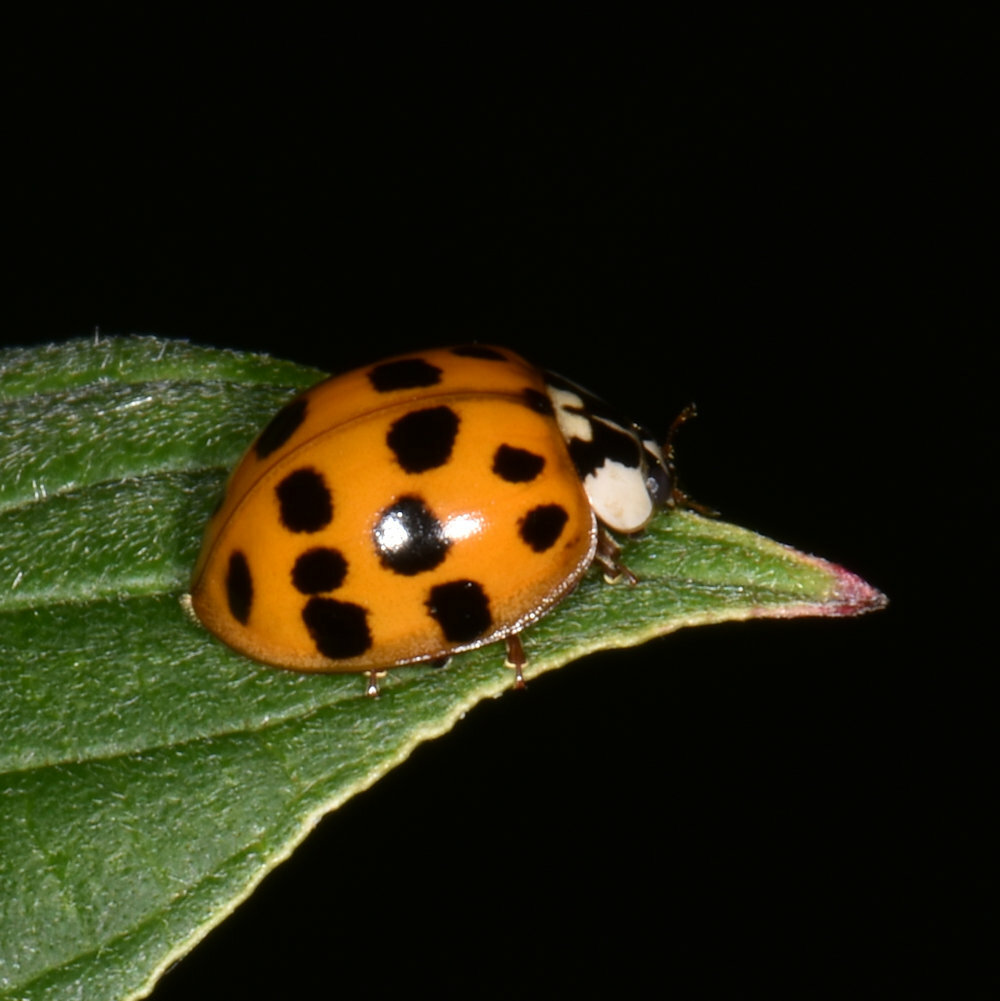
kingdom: Animalia
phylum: Arthropoda
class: Insecta
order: Coleoptera
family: Coccinellidae
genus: Harmonia
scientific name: Harmonia axyridis
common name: Harlequin ladybird
